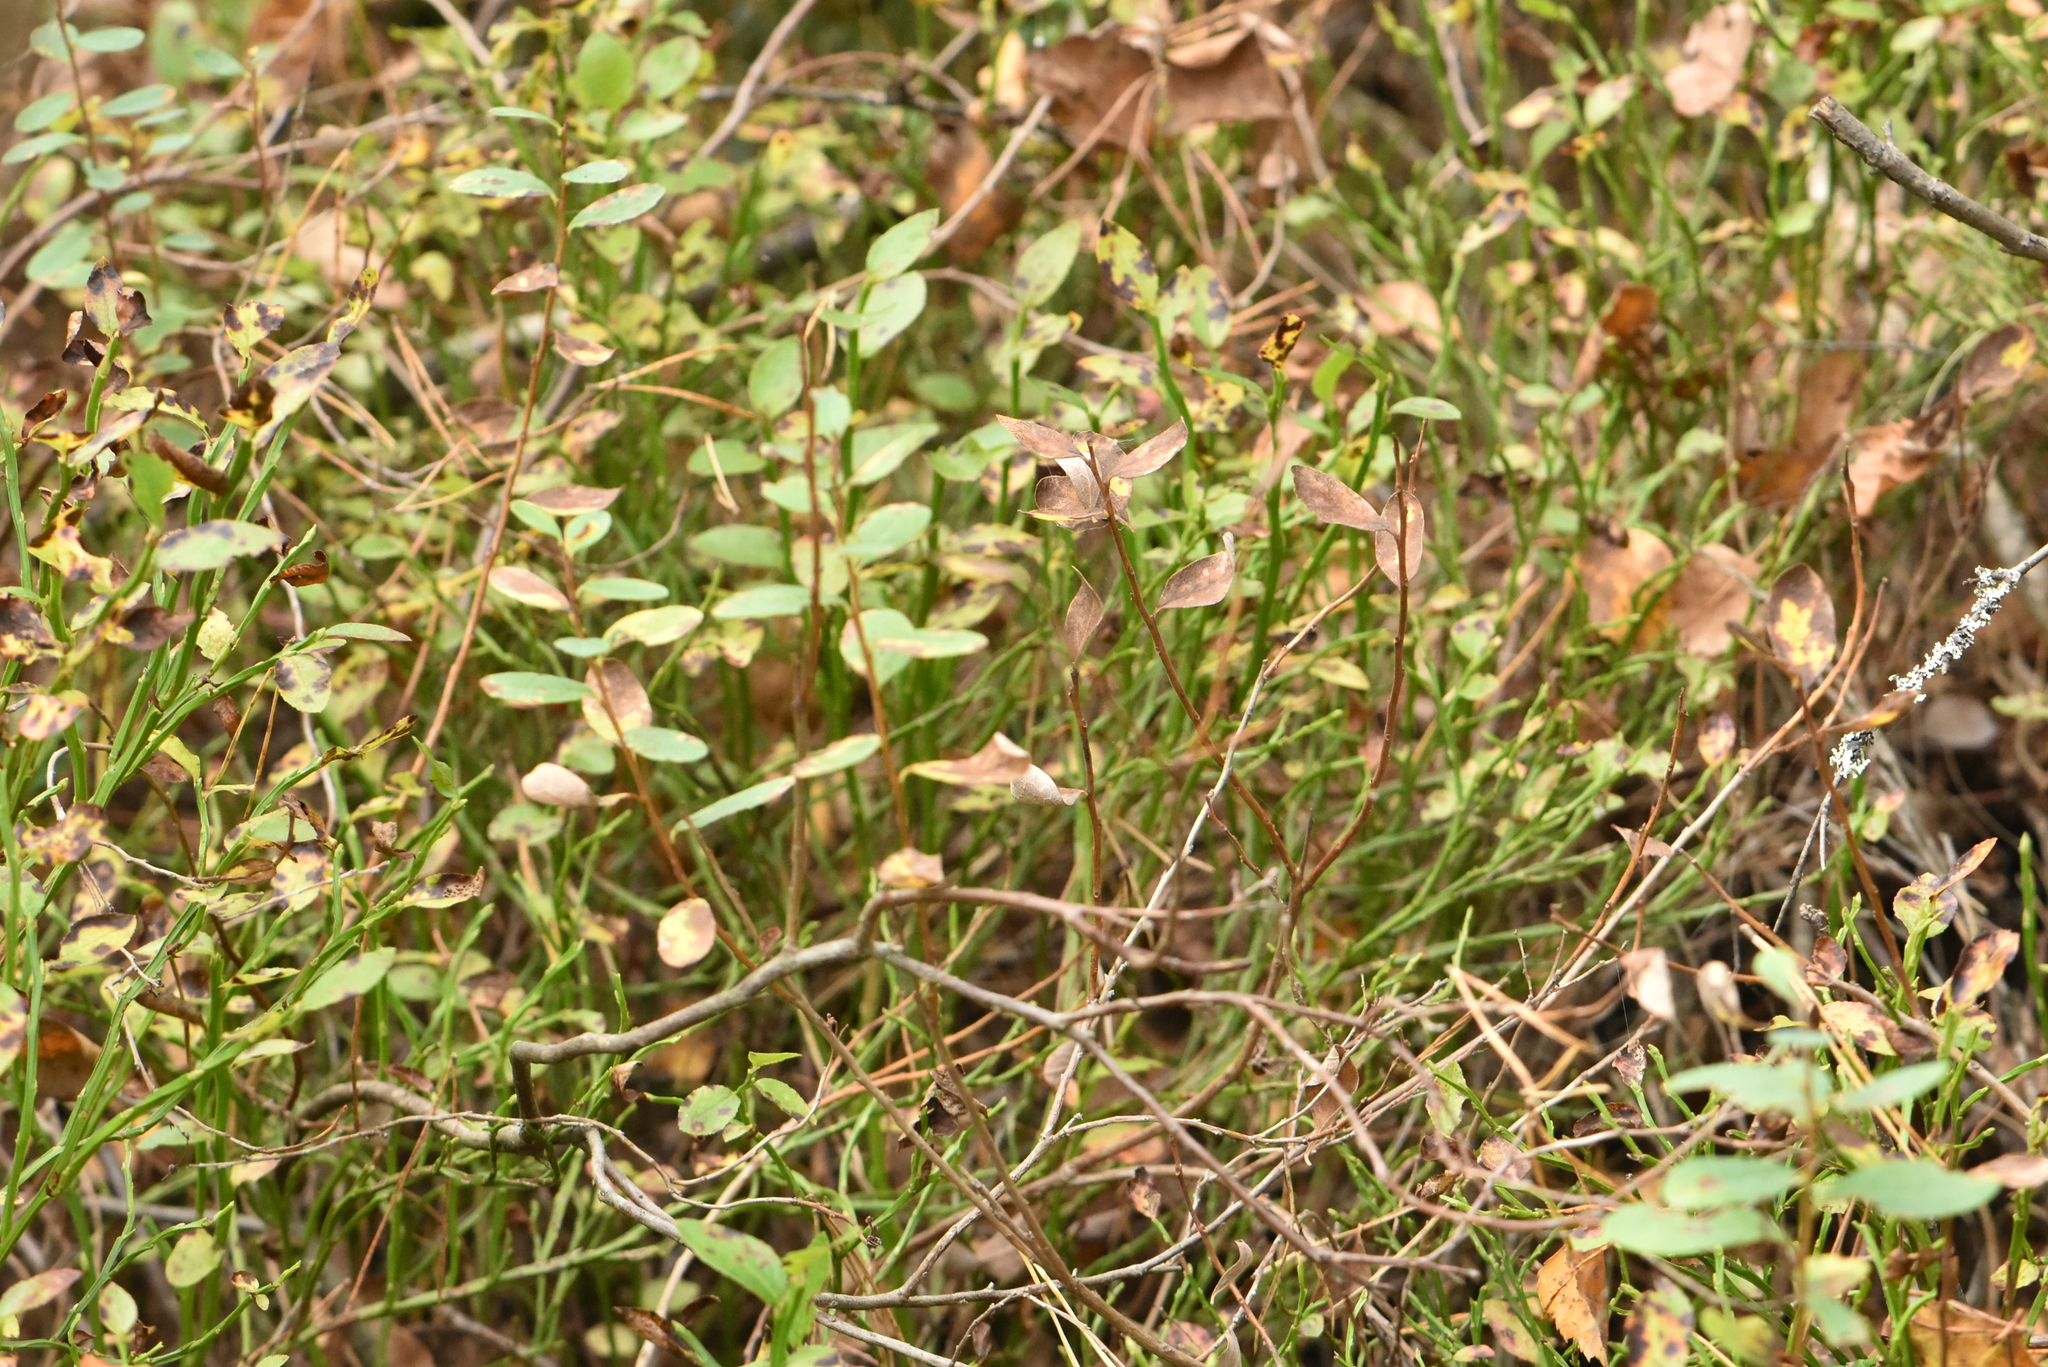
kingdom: Plantae
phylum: Tracheophyta
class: Magnoliopsida
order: Ericales
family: Ericaceae
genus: Vaccinium
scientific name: Vaccinium myrtillus
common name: Bilberry
